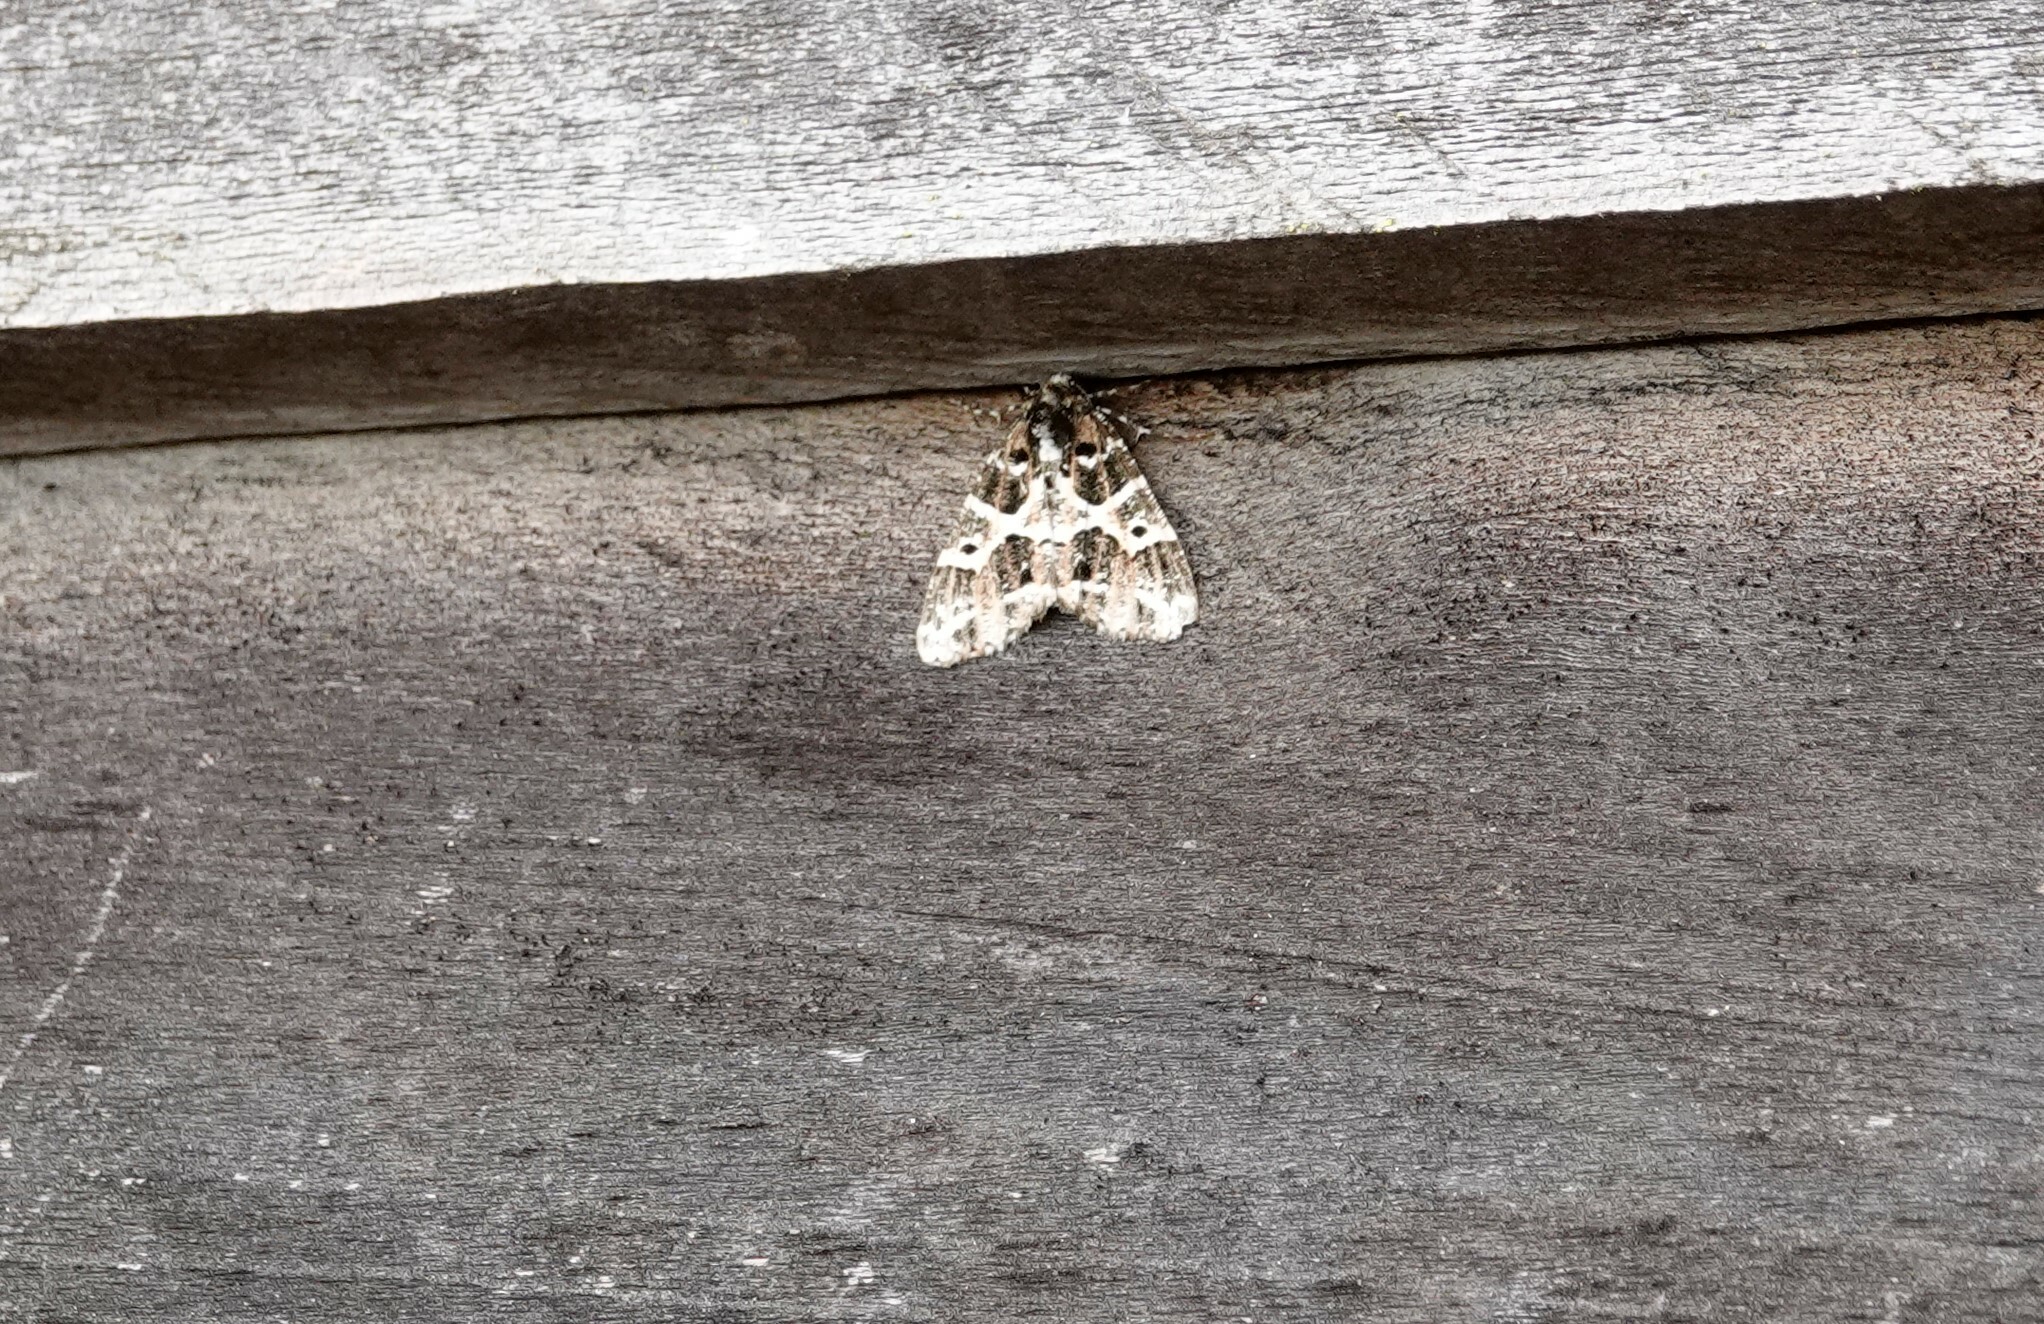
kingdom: Animalia
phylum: Arthropoda
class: Insecta
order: Lepidoptera
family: Geometridae
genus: Cargolia
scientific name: Cargolia arana
